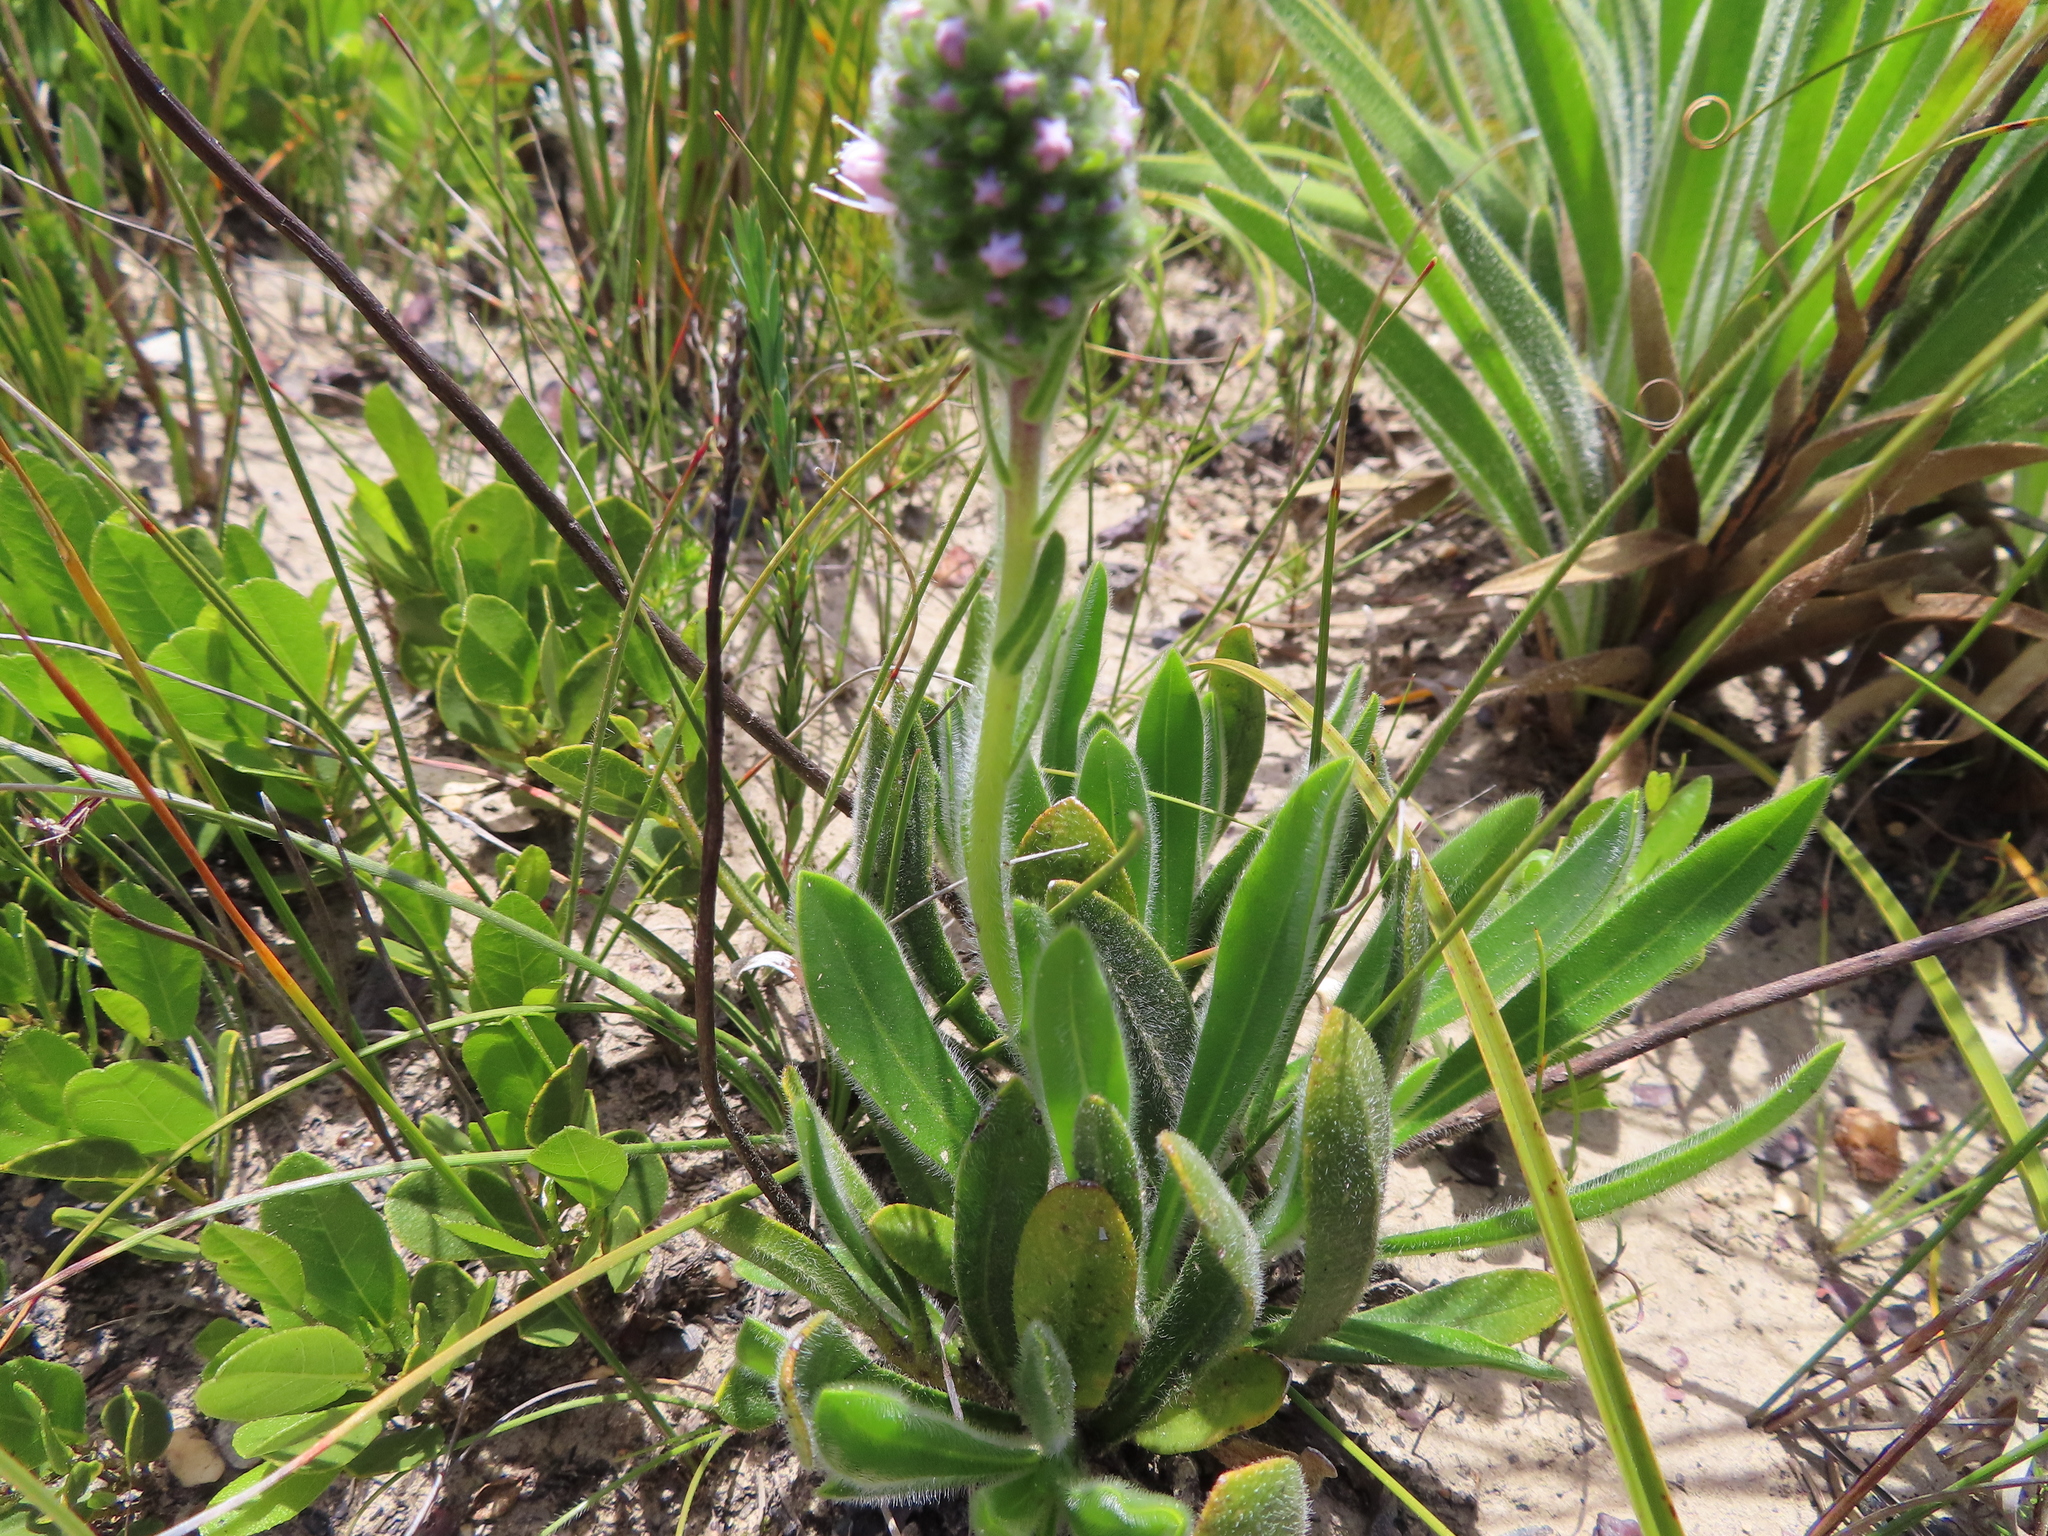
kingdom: Plantae
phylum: Tracheophyta
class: Magnoliopsida
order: Boraginales
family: Boraginaceae
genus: Lobostemon
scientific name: Lobostemon ecklonianus
